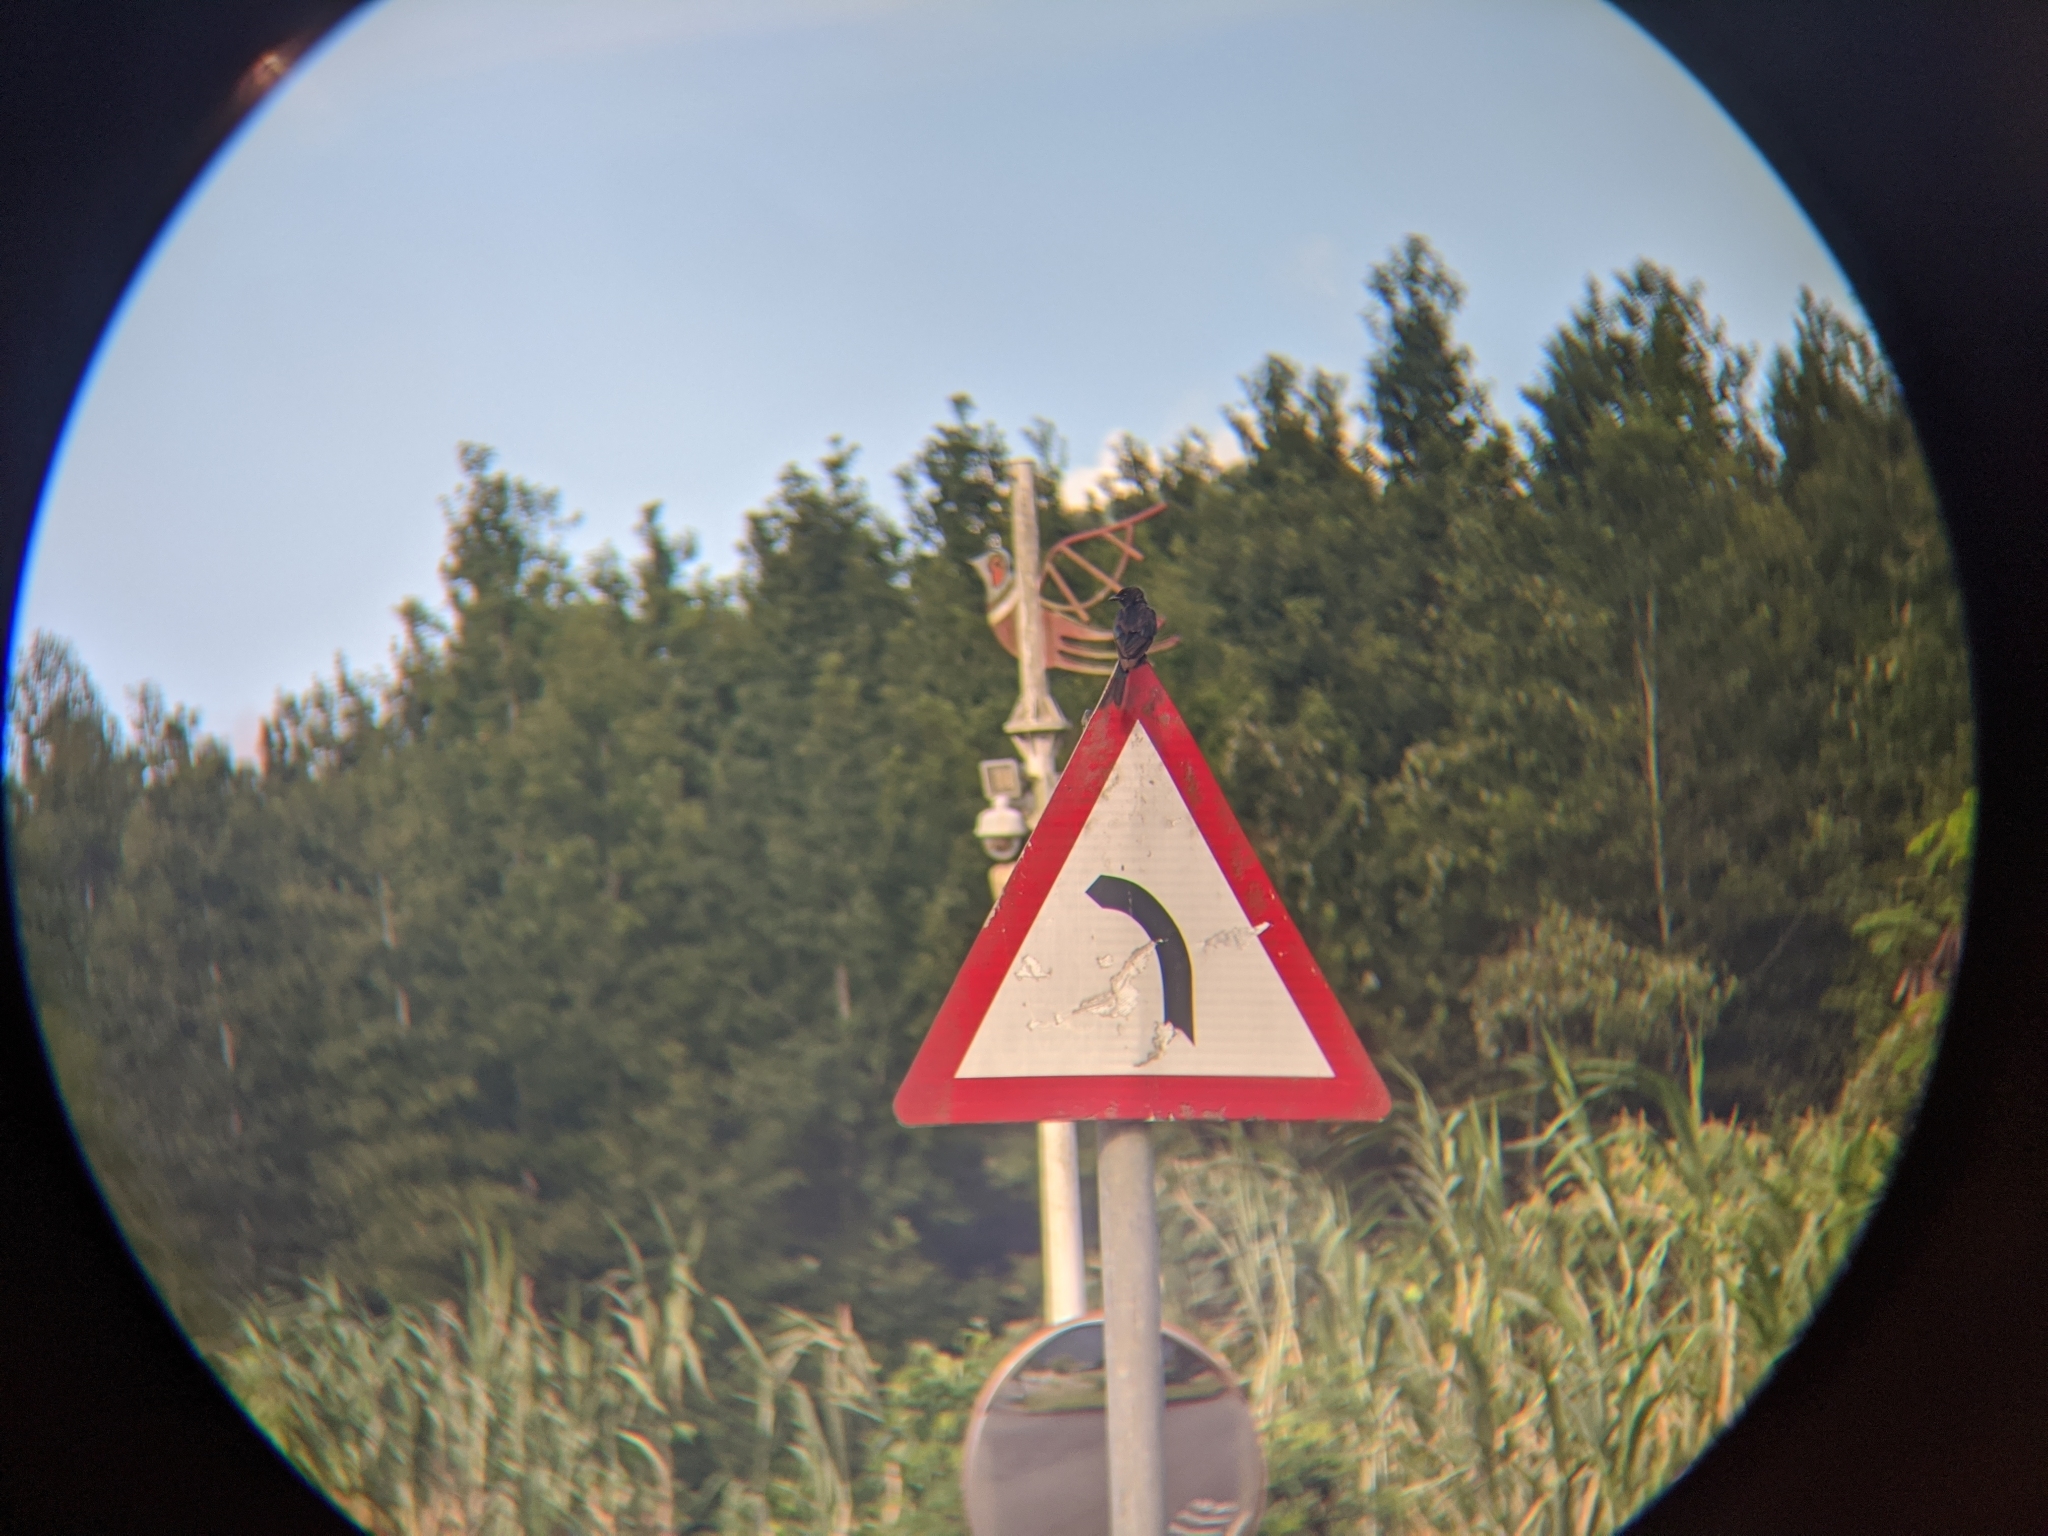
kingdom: Animalia
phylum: Chordata
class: Aves
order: Passeriformes
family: Dicruridae
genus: Dicrurus
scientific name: Dicrurus macrocercus
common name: Black drongo
